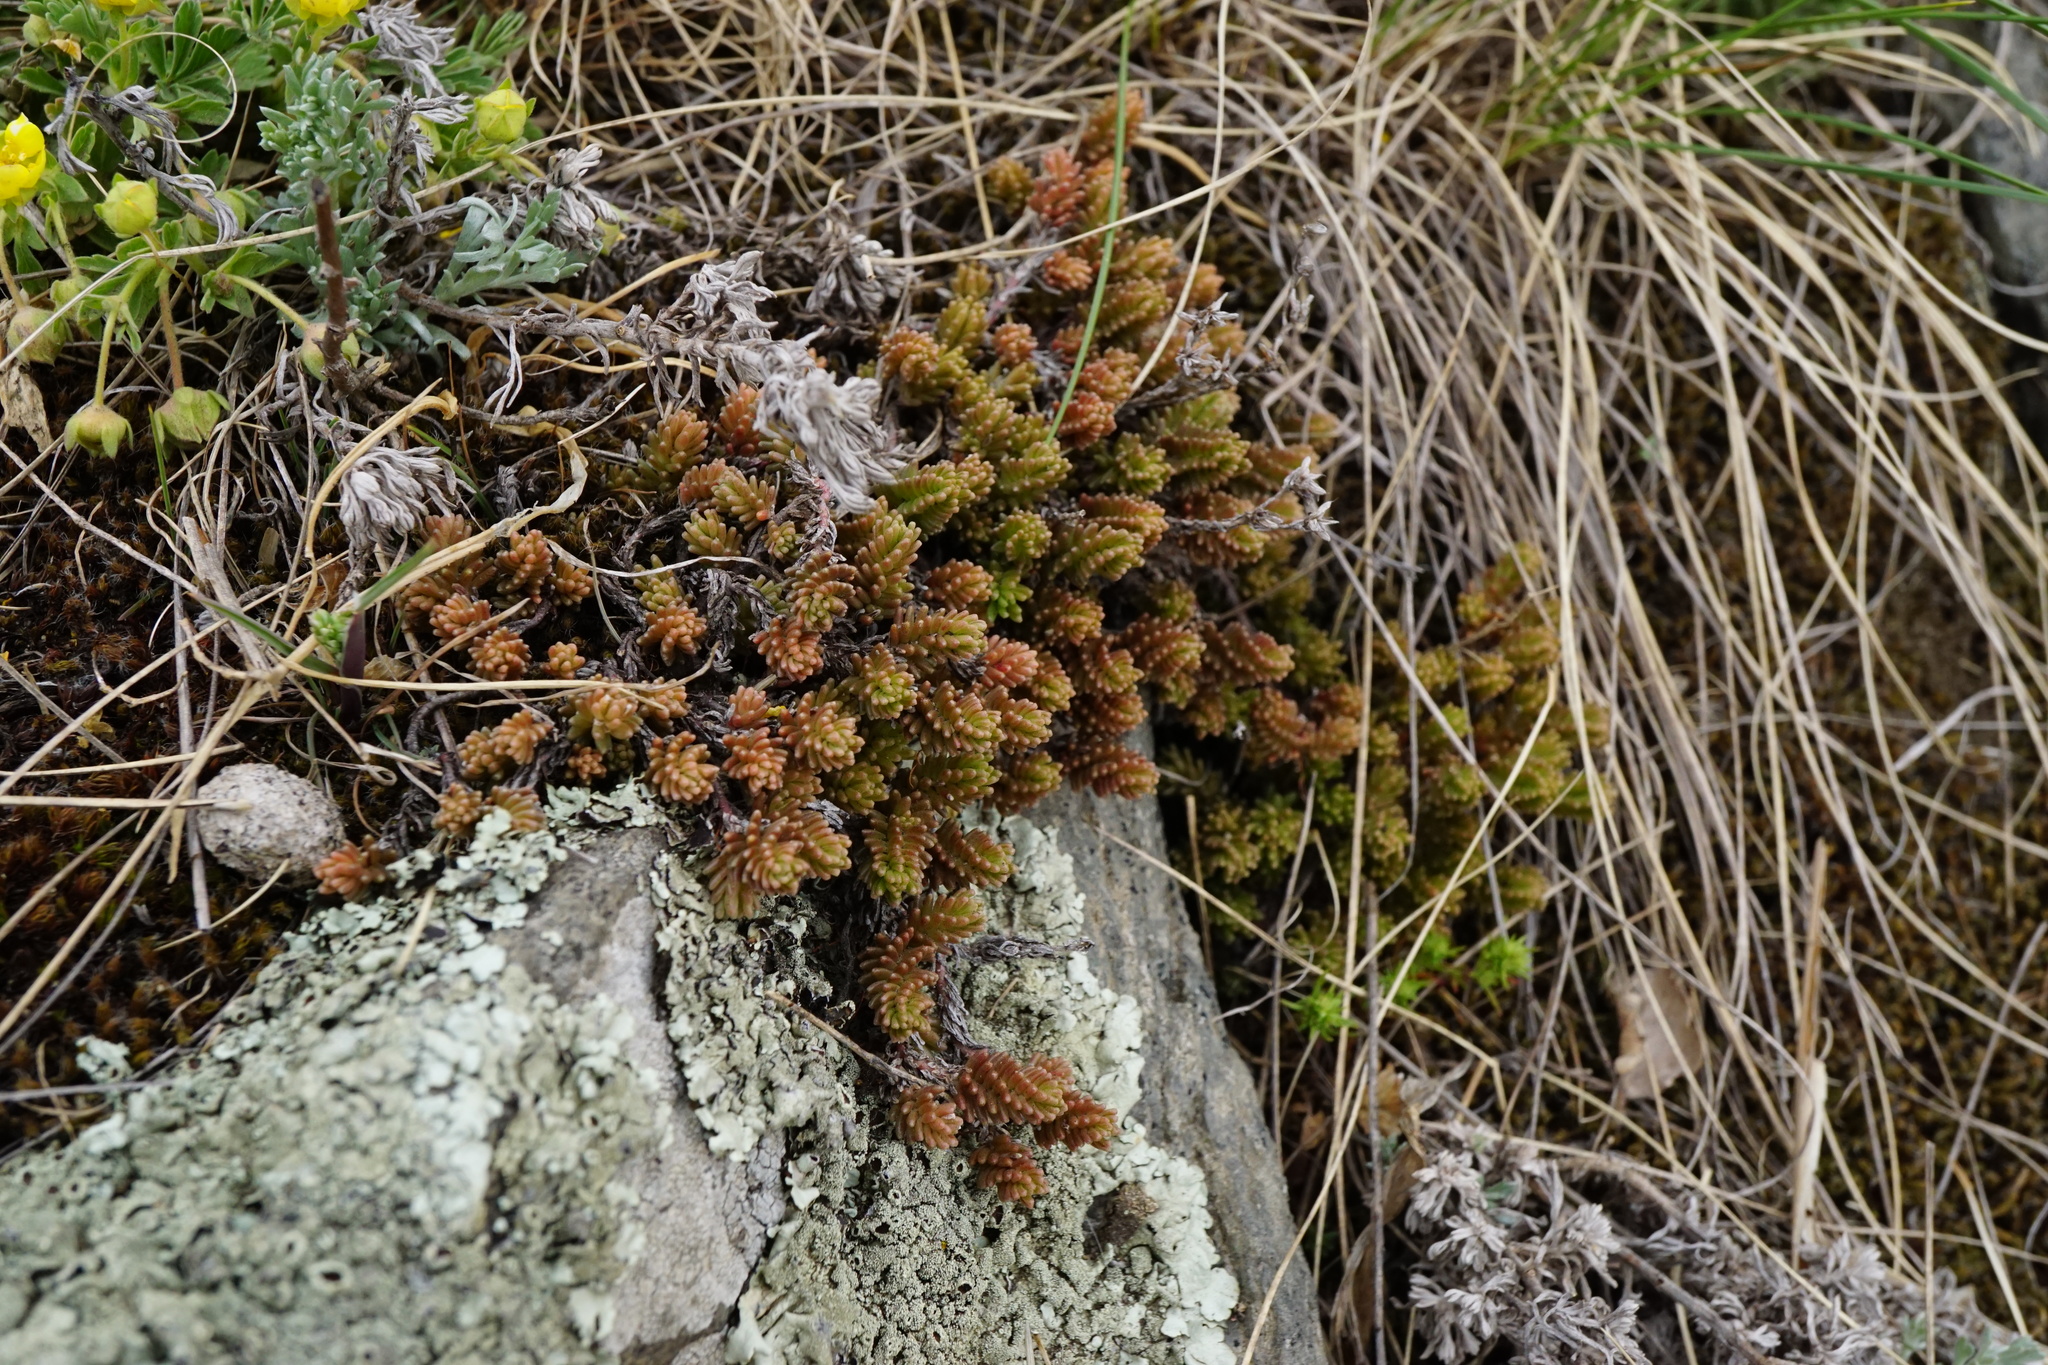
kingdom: Plantae
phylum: Tracheophyta
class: Magnoliopsida
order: Saxifragales
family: Crassulaceae
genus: Sedum
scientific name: Sedum sexangulare
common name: Tasteless stonecrop
